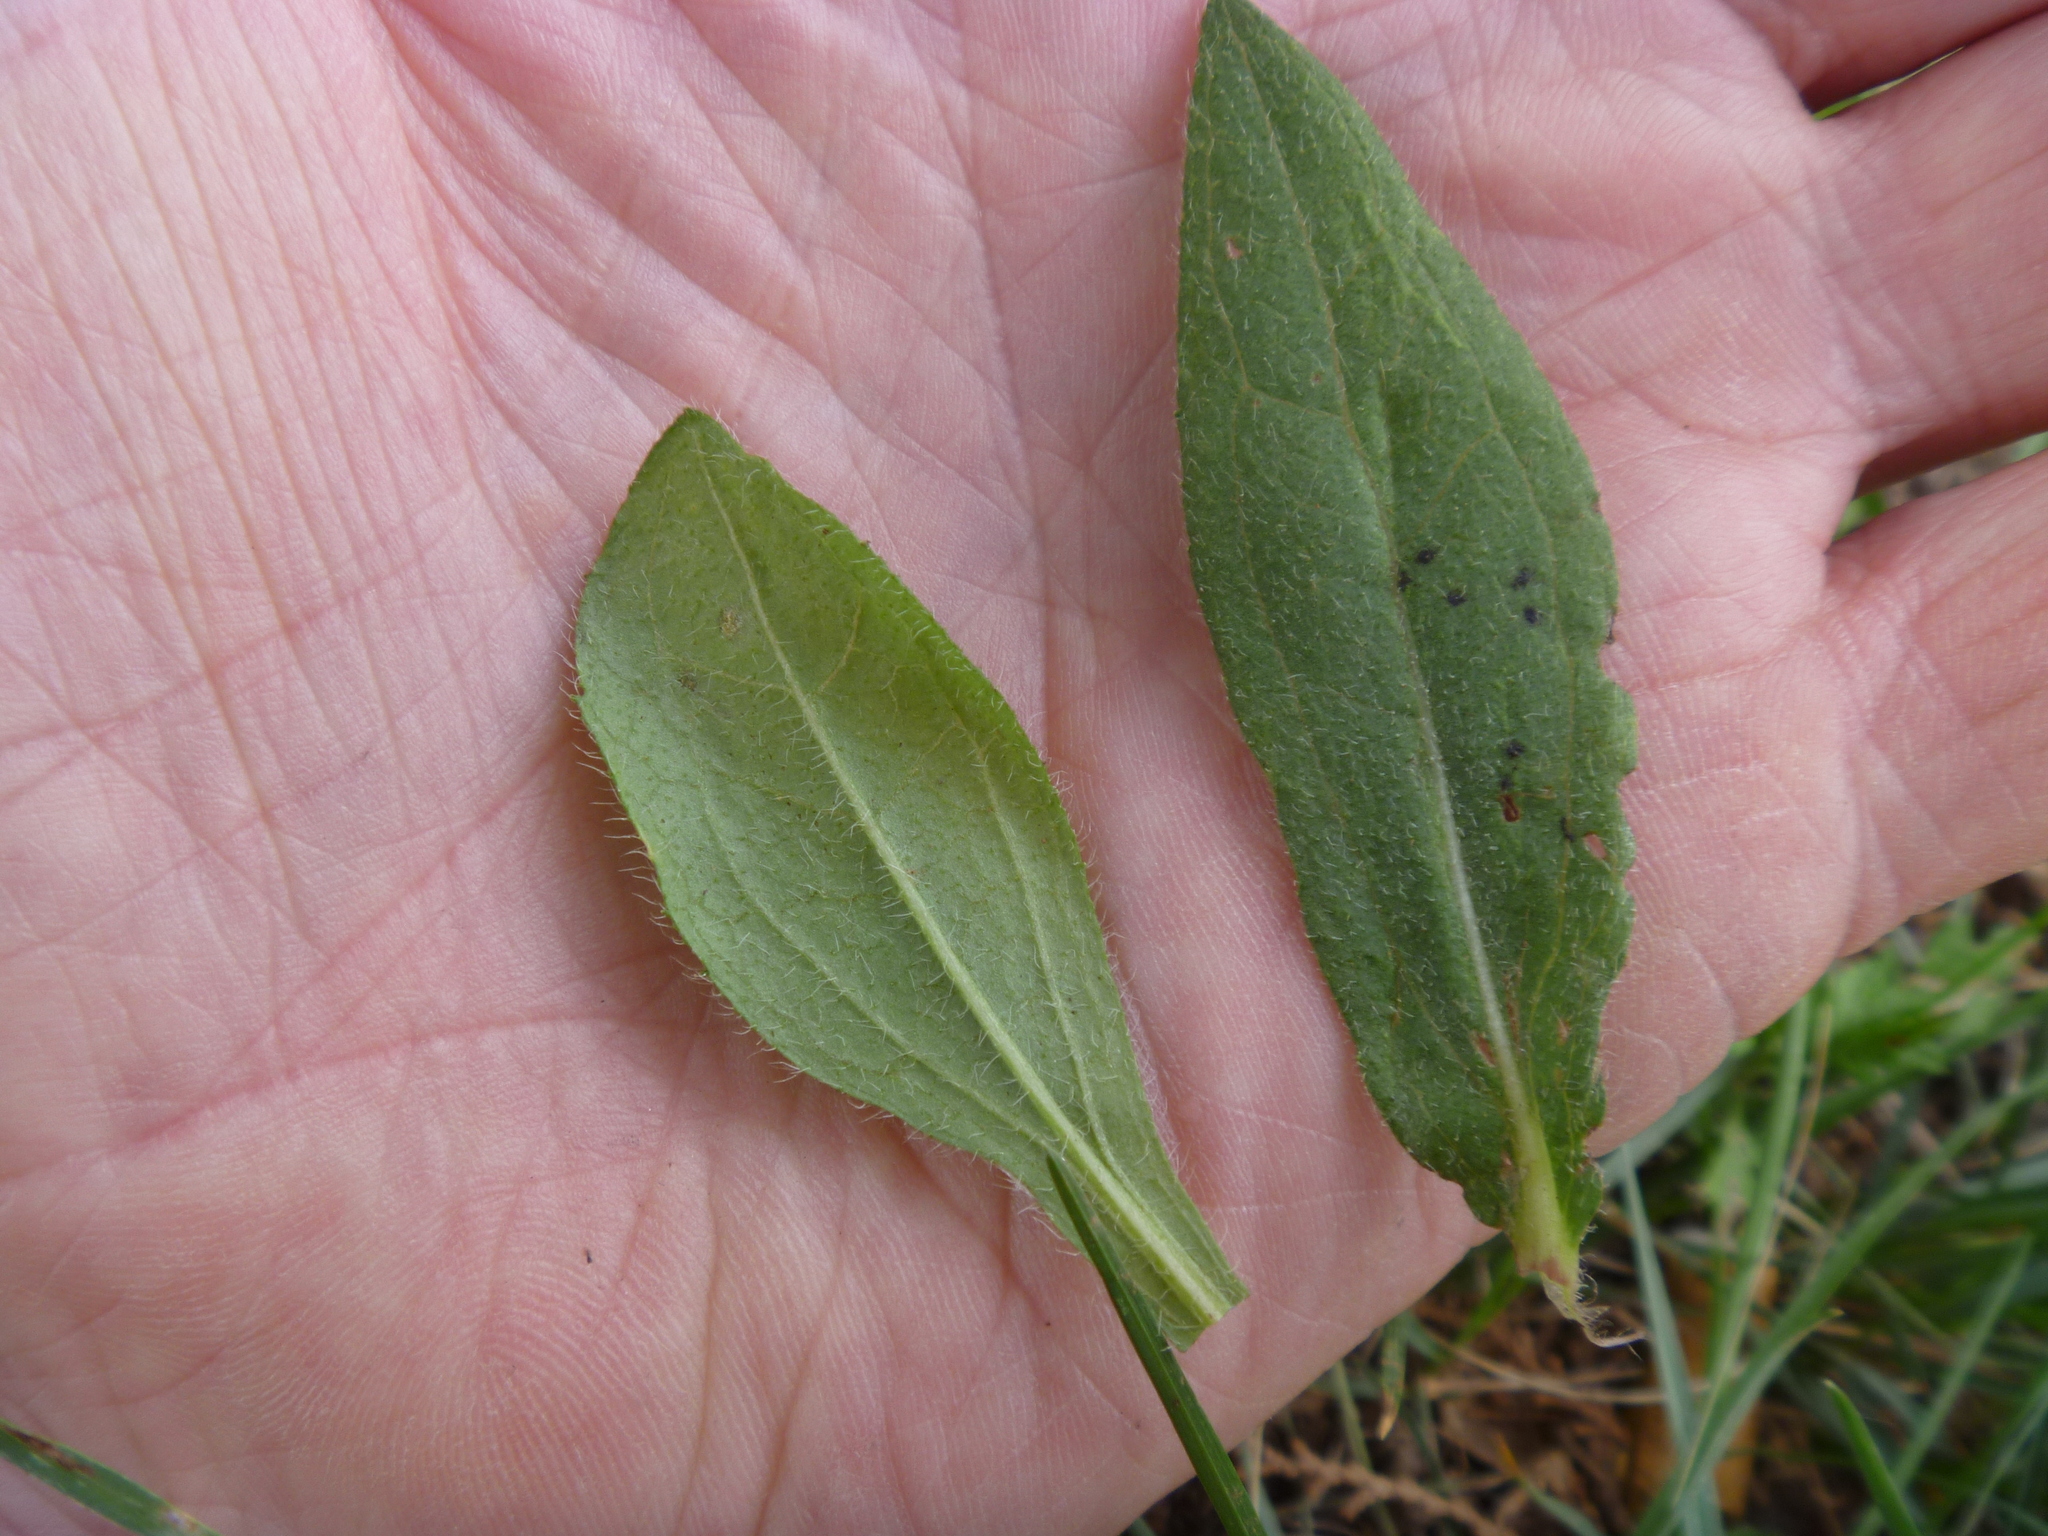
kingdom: Plantae
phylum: Tracheophyta
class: Magnoliopsida
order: Asterales
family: Asteraceae
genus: Rudbeckia
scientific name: Rudbeckia hirta
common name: Black-eyed-susan
